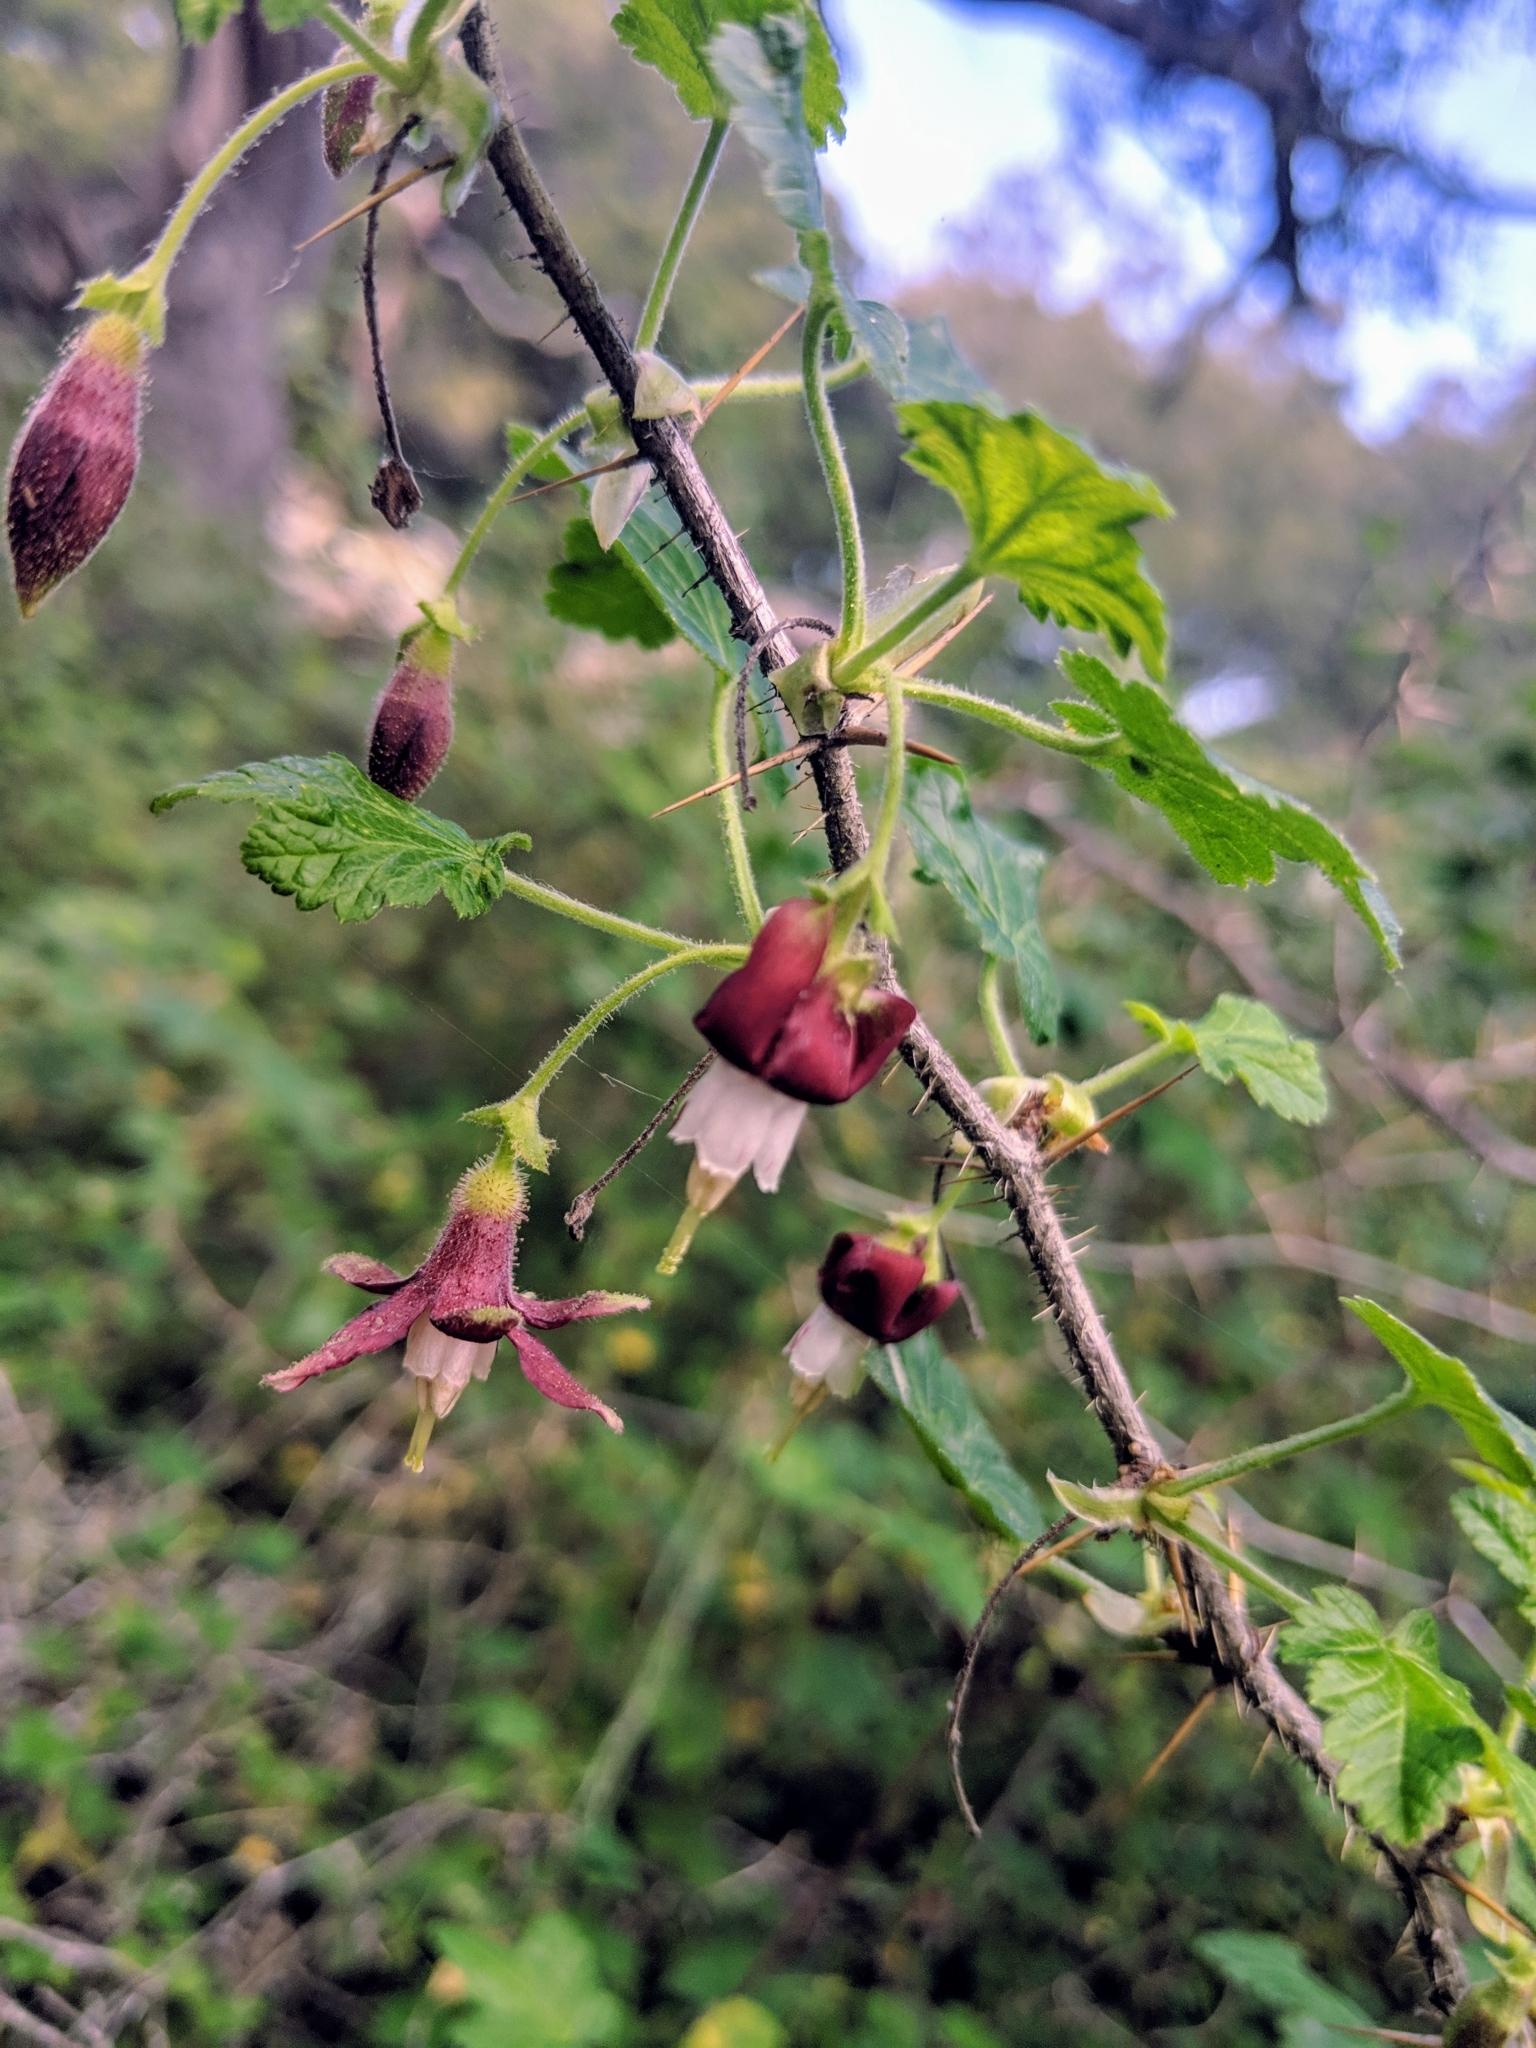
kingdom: Plantae
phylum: Tracheophyta
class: Magnoliopsida
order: Saxifragales
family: Grossulariaceae
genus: Ribes
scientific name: Ribes menziesii
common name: Canyon gooseberry
